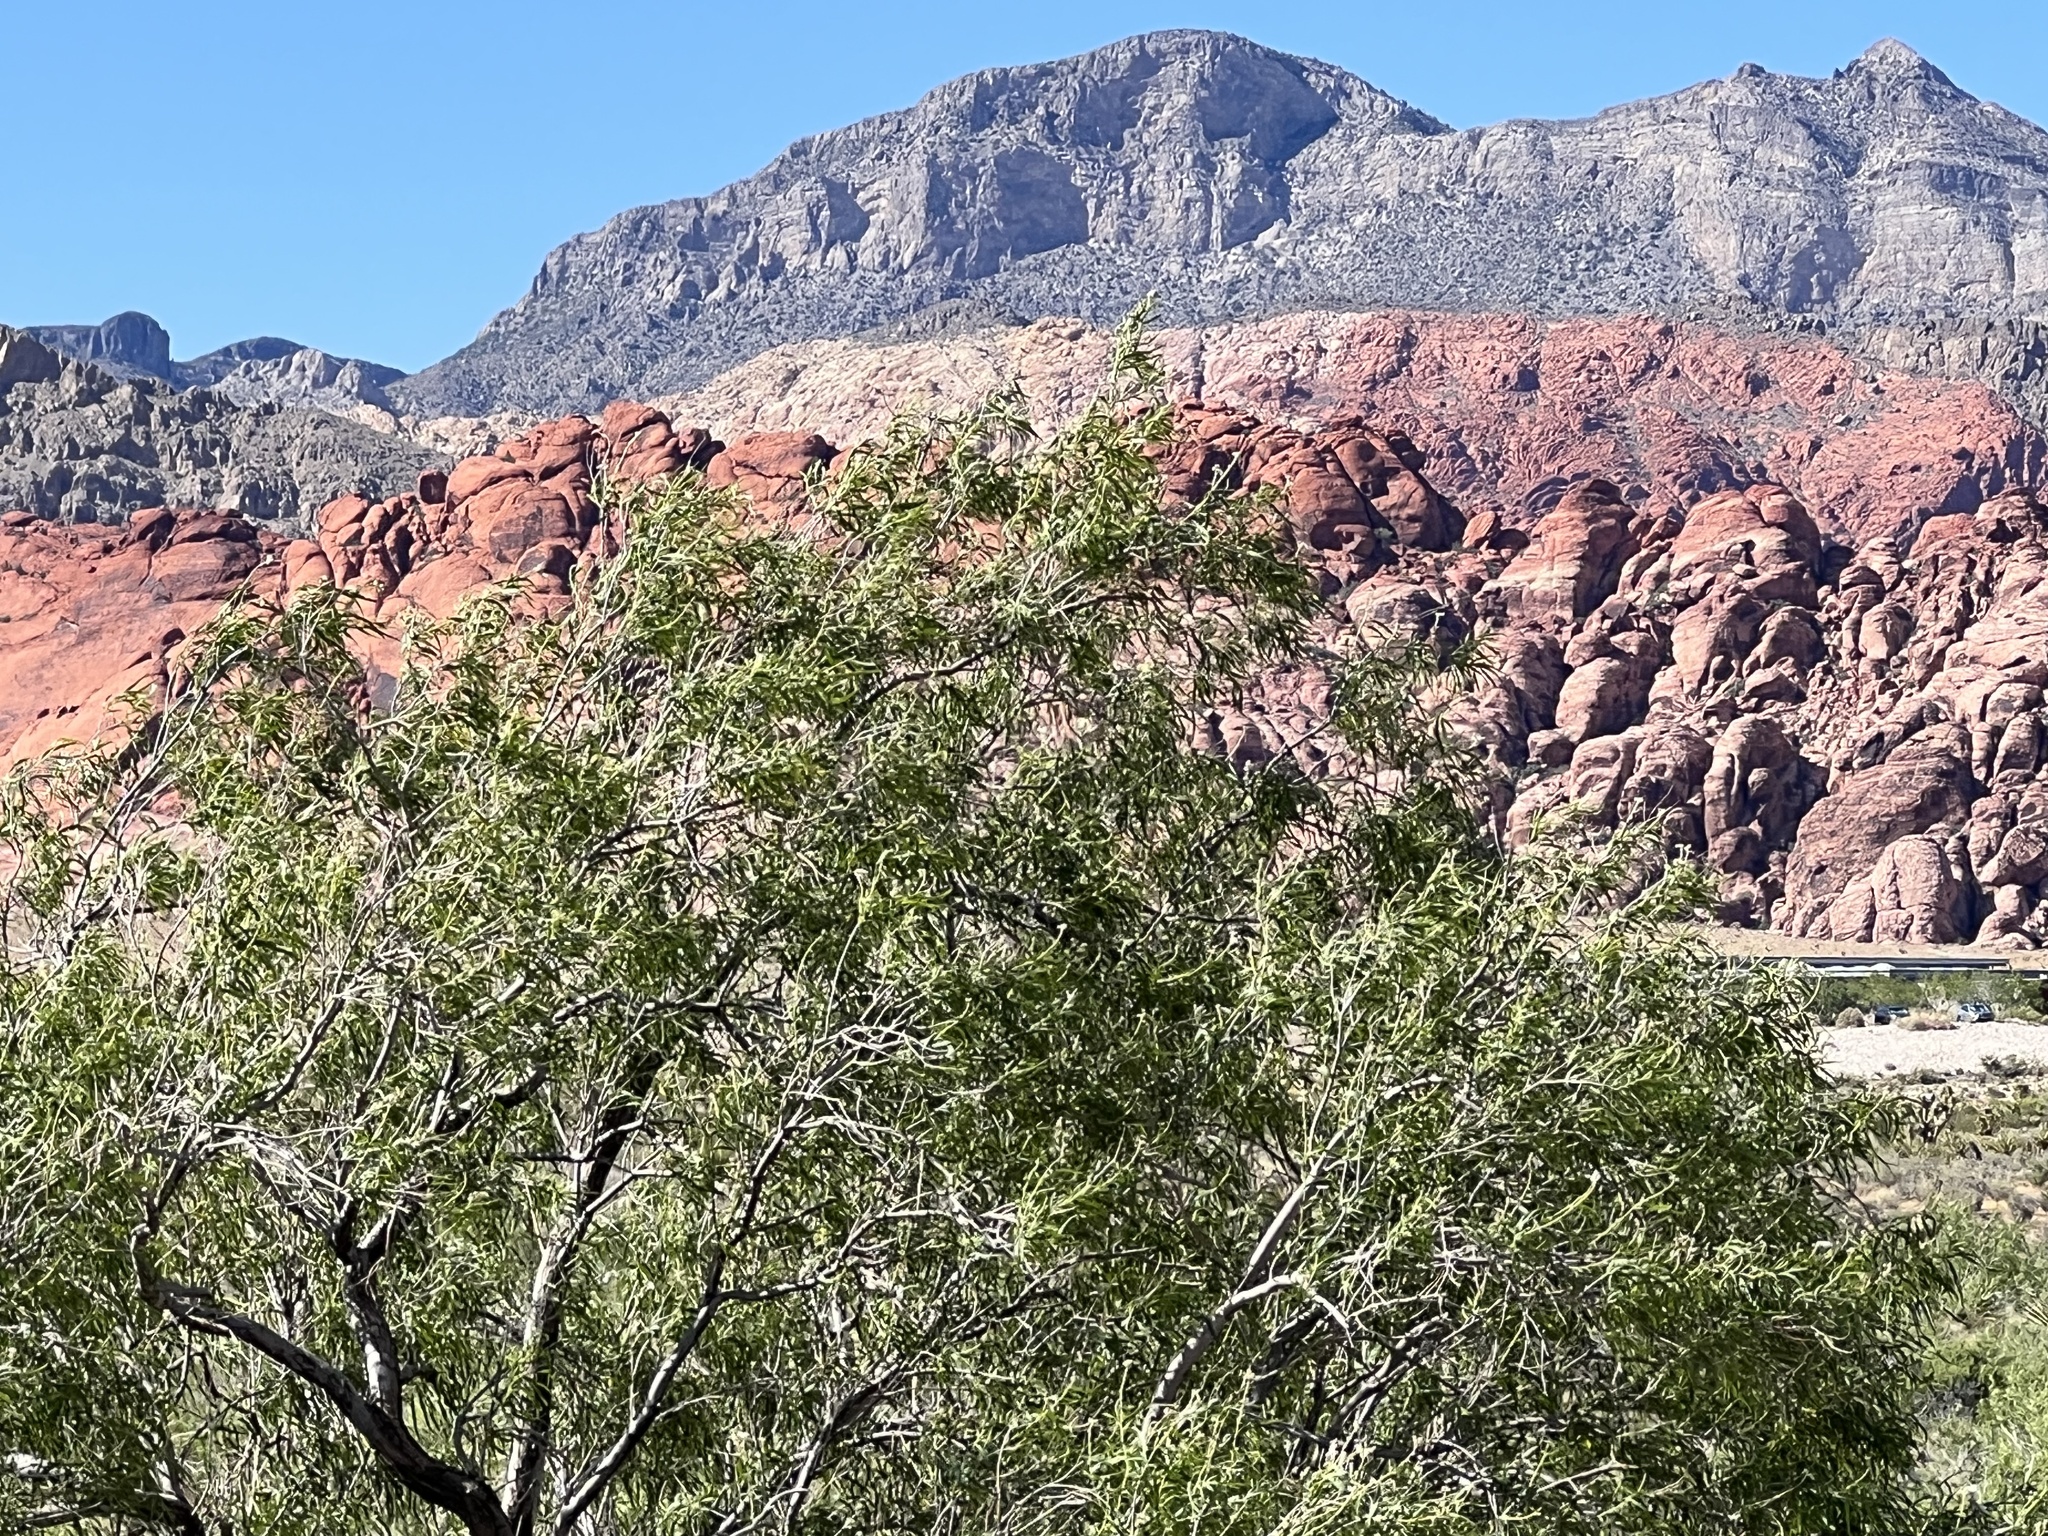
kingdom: Plantae
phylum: Tracheophyta
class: Magnoliopsida
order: Lamiales
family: Bignoniaceae
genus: Chilopsis
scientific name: Chilopsis linearis
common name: Desert-willow
